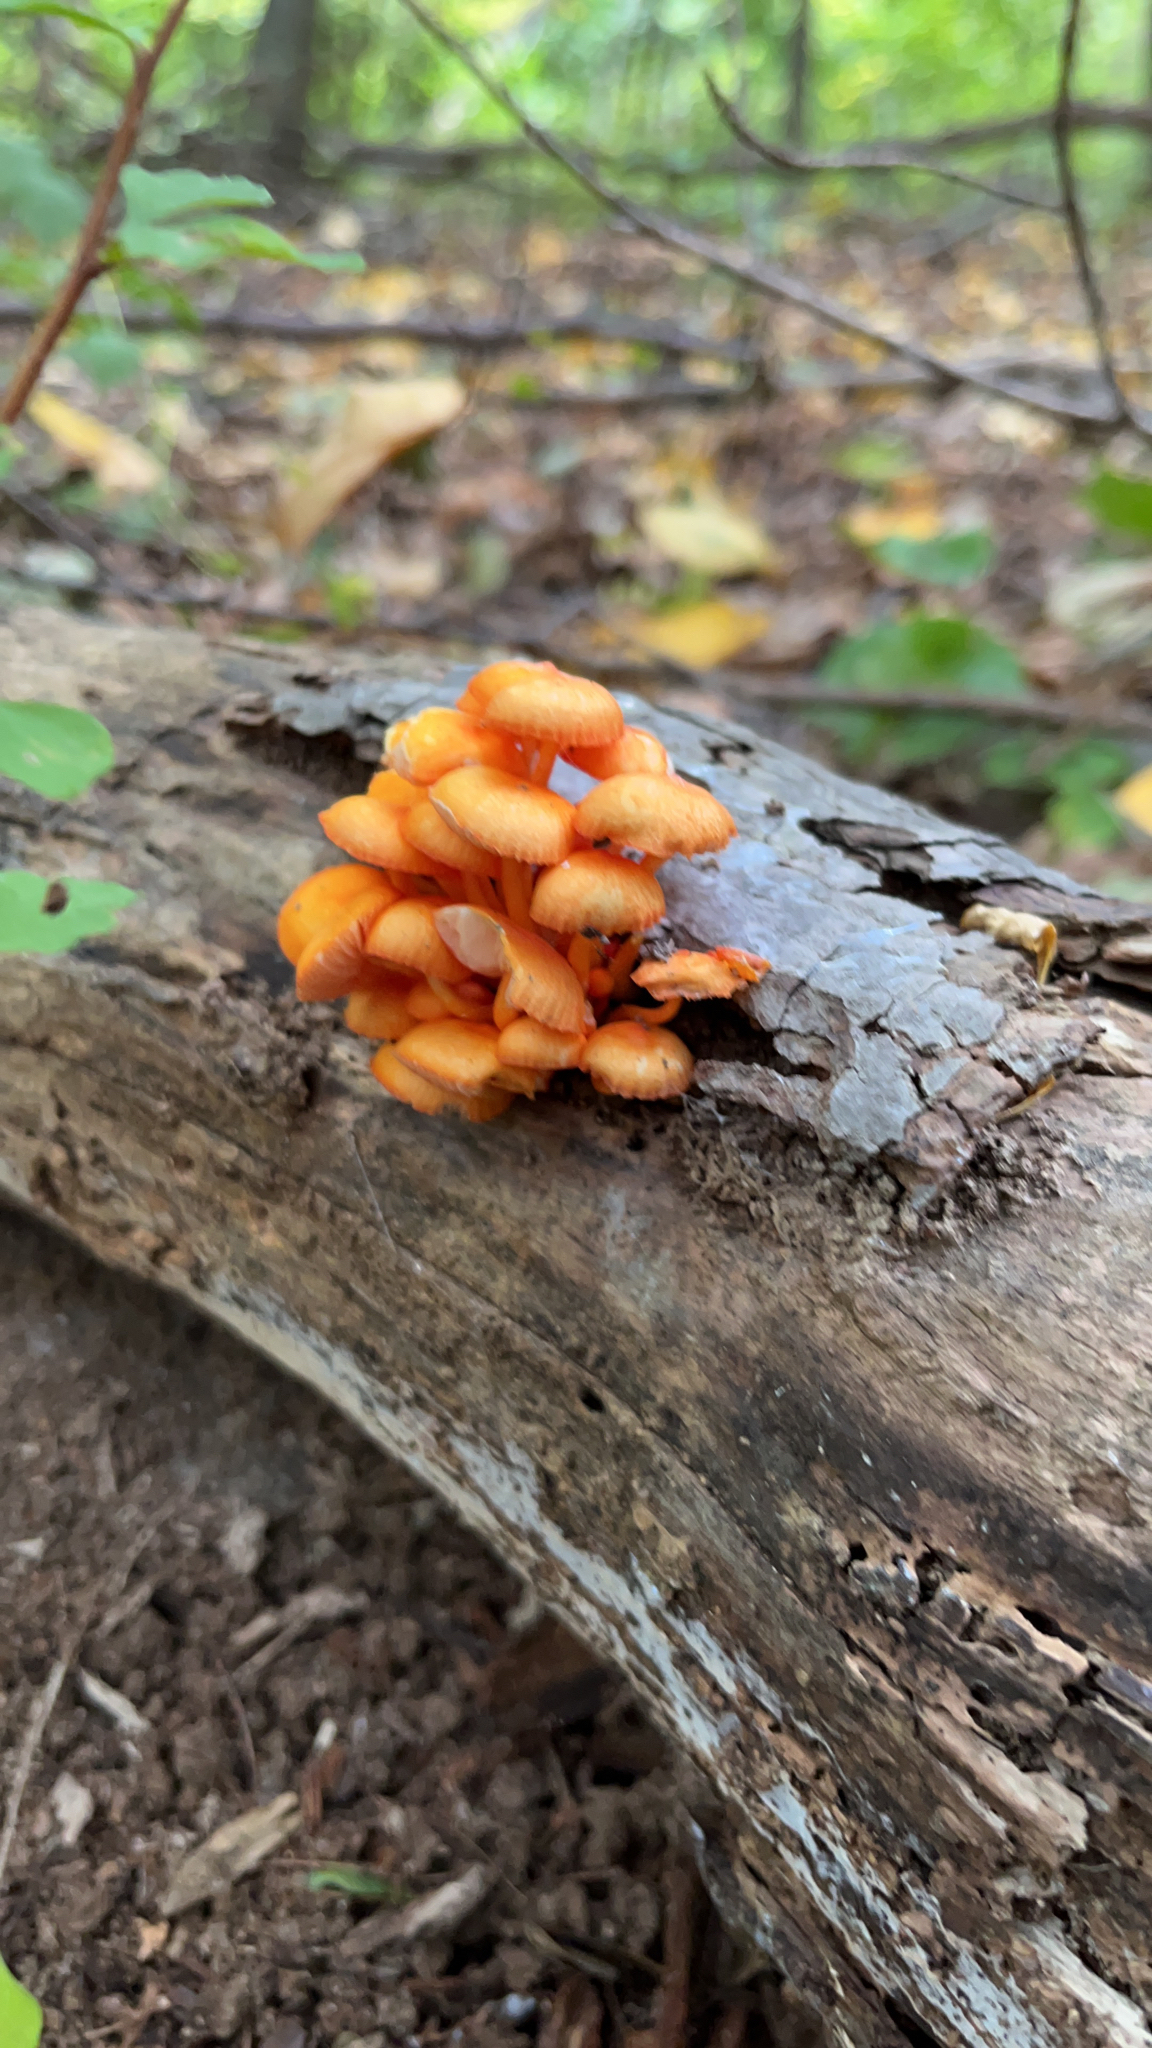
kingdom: Fungi
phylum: Basidiomycota
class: Agaricomycetes
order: Agaricales
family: Mycenaceae
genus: Mycena
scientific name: Mycena leaiana
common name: Orange mycena
